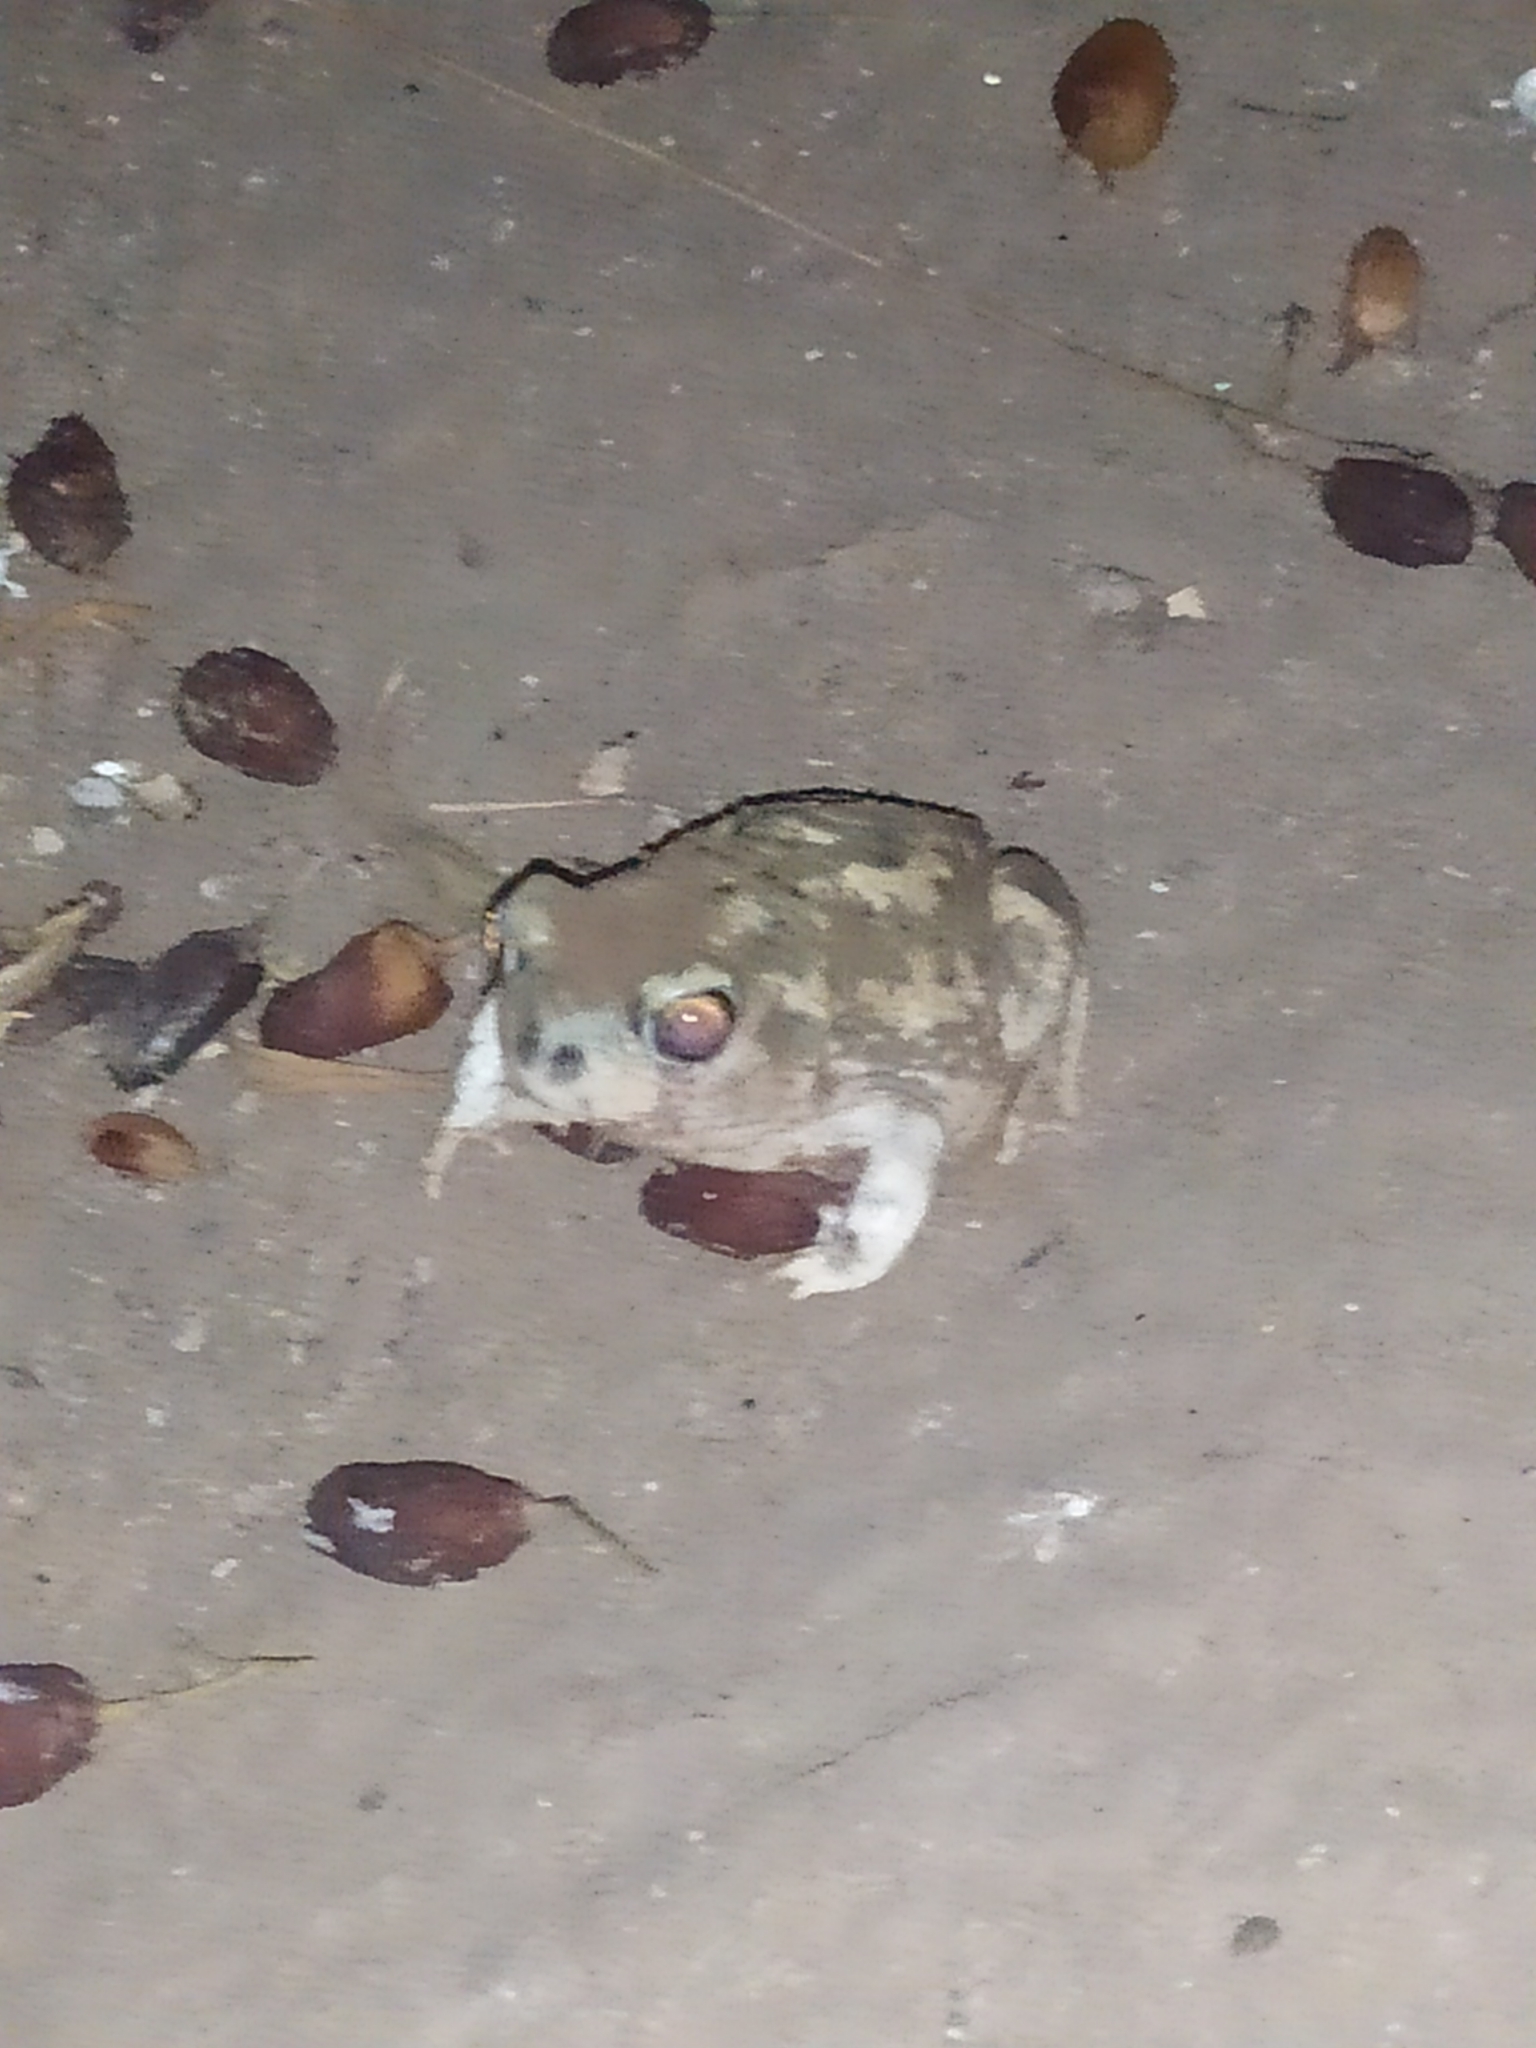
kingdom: Animalia
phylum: Chordata
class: Amphibia
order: Anura
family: Scaphiopodidae
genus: Scaphiopus
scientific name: Scaphiopus couchii
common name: Couch's spadefoot toad
